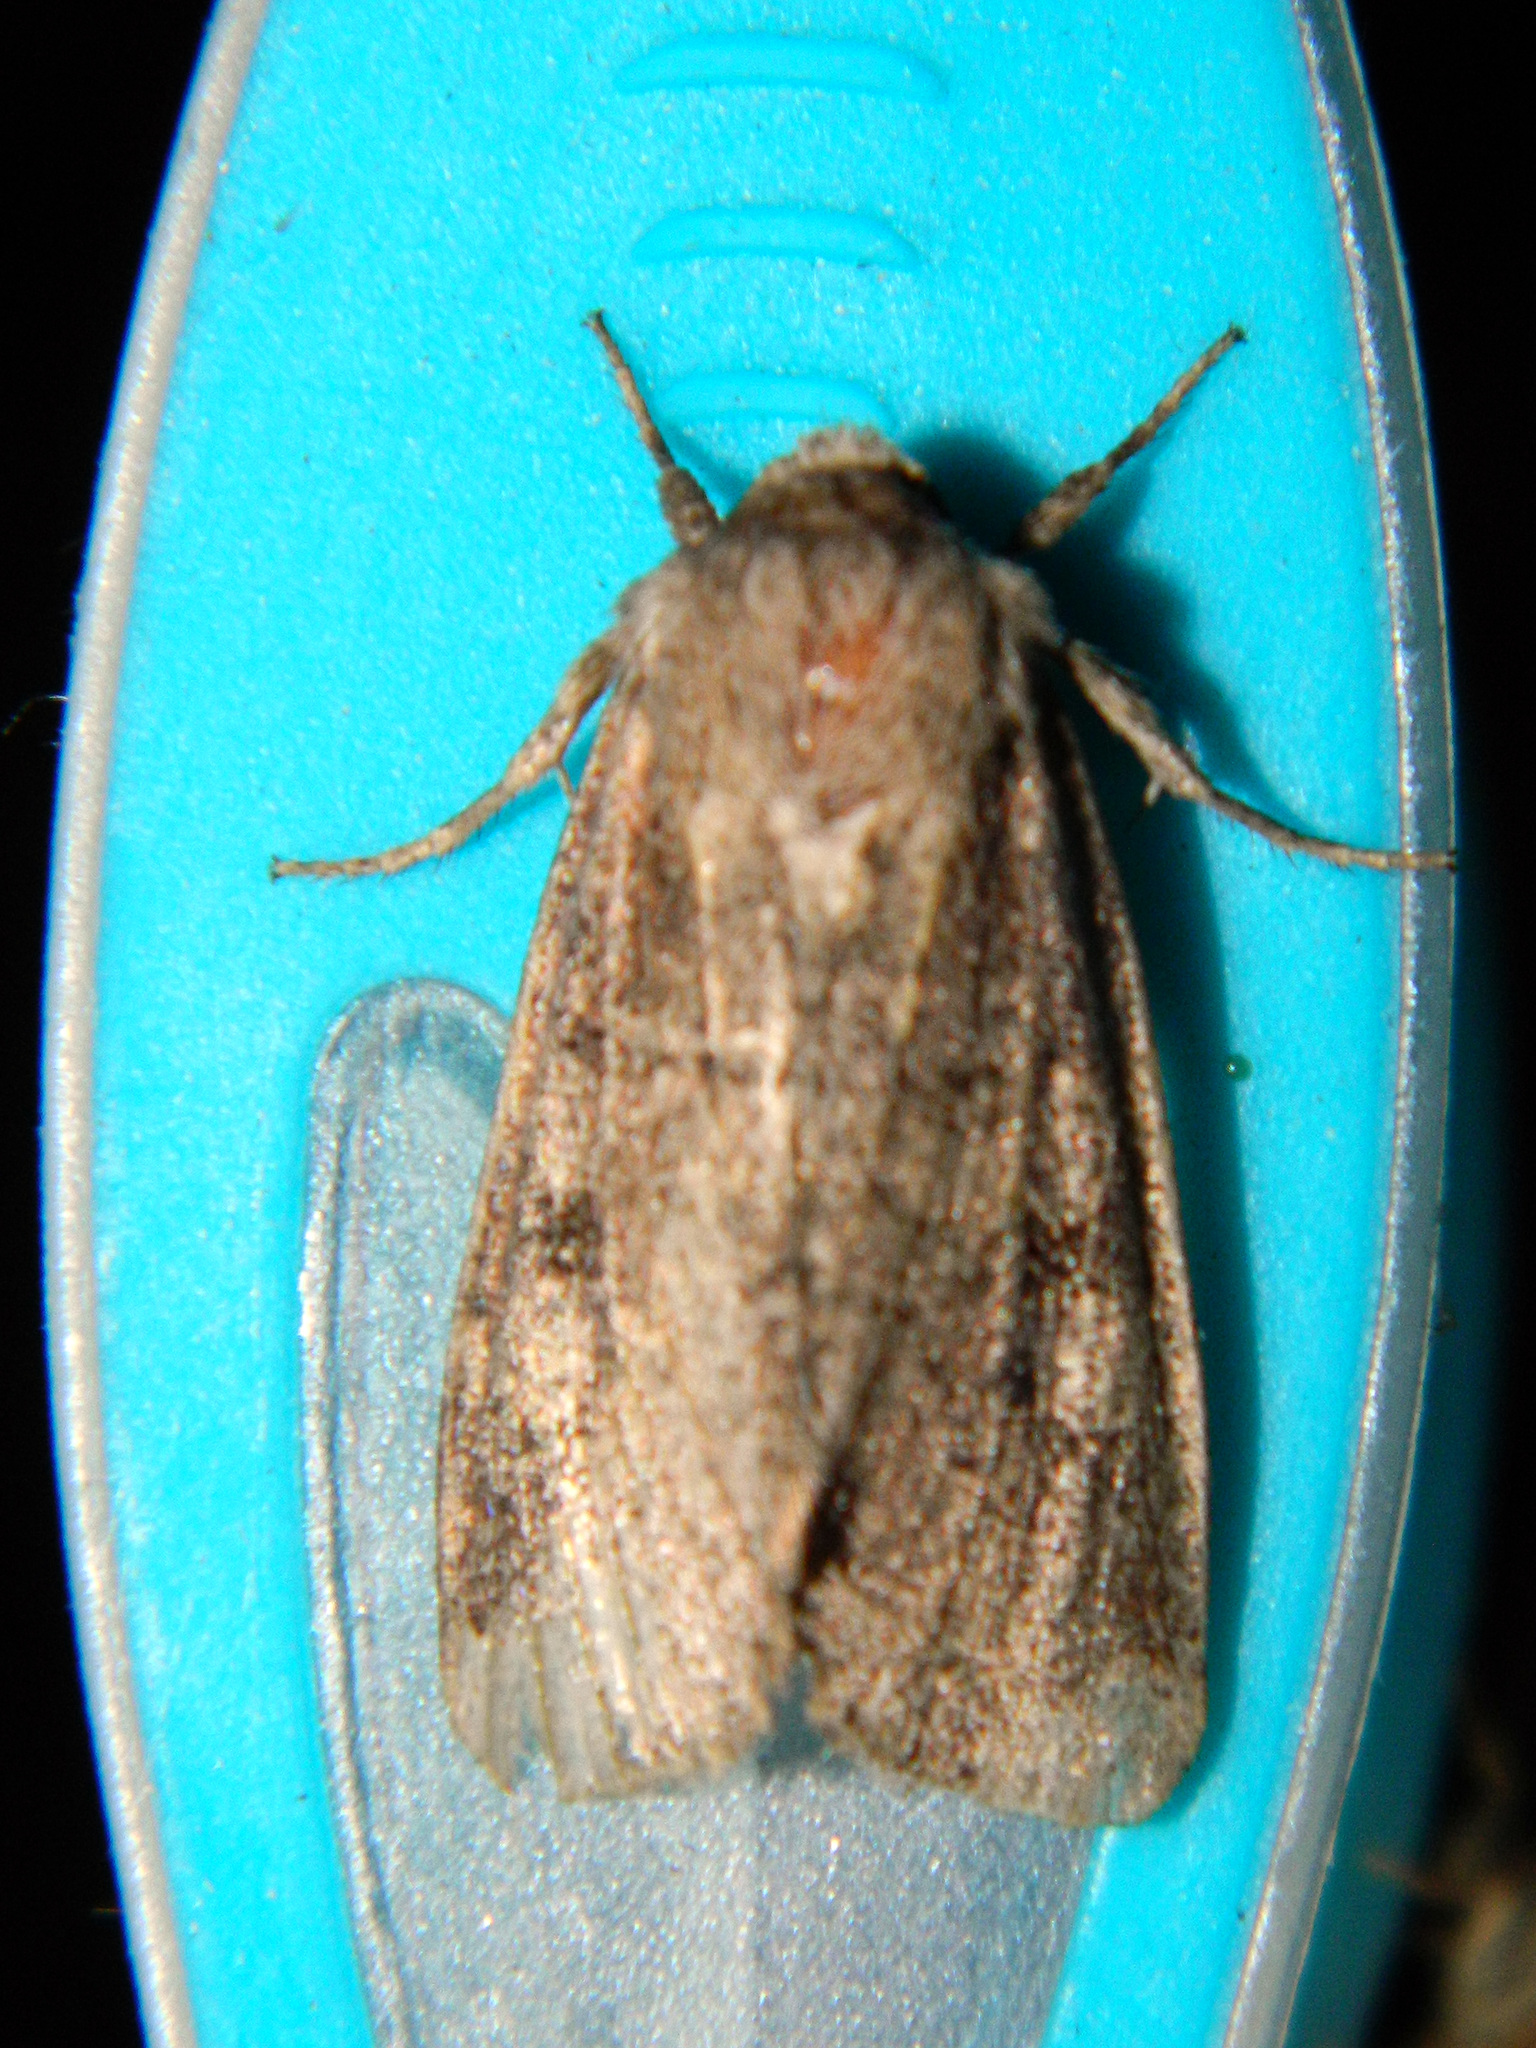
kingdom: Animalia
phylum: Arthropoda
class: Insecta
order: Lepidoptera
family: Noctuidae
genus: Crocigrapha
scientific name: Crocigrapha normani
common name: Norman's quaker
